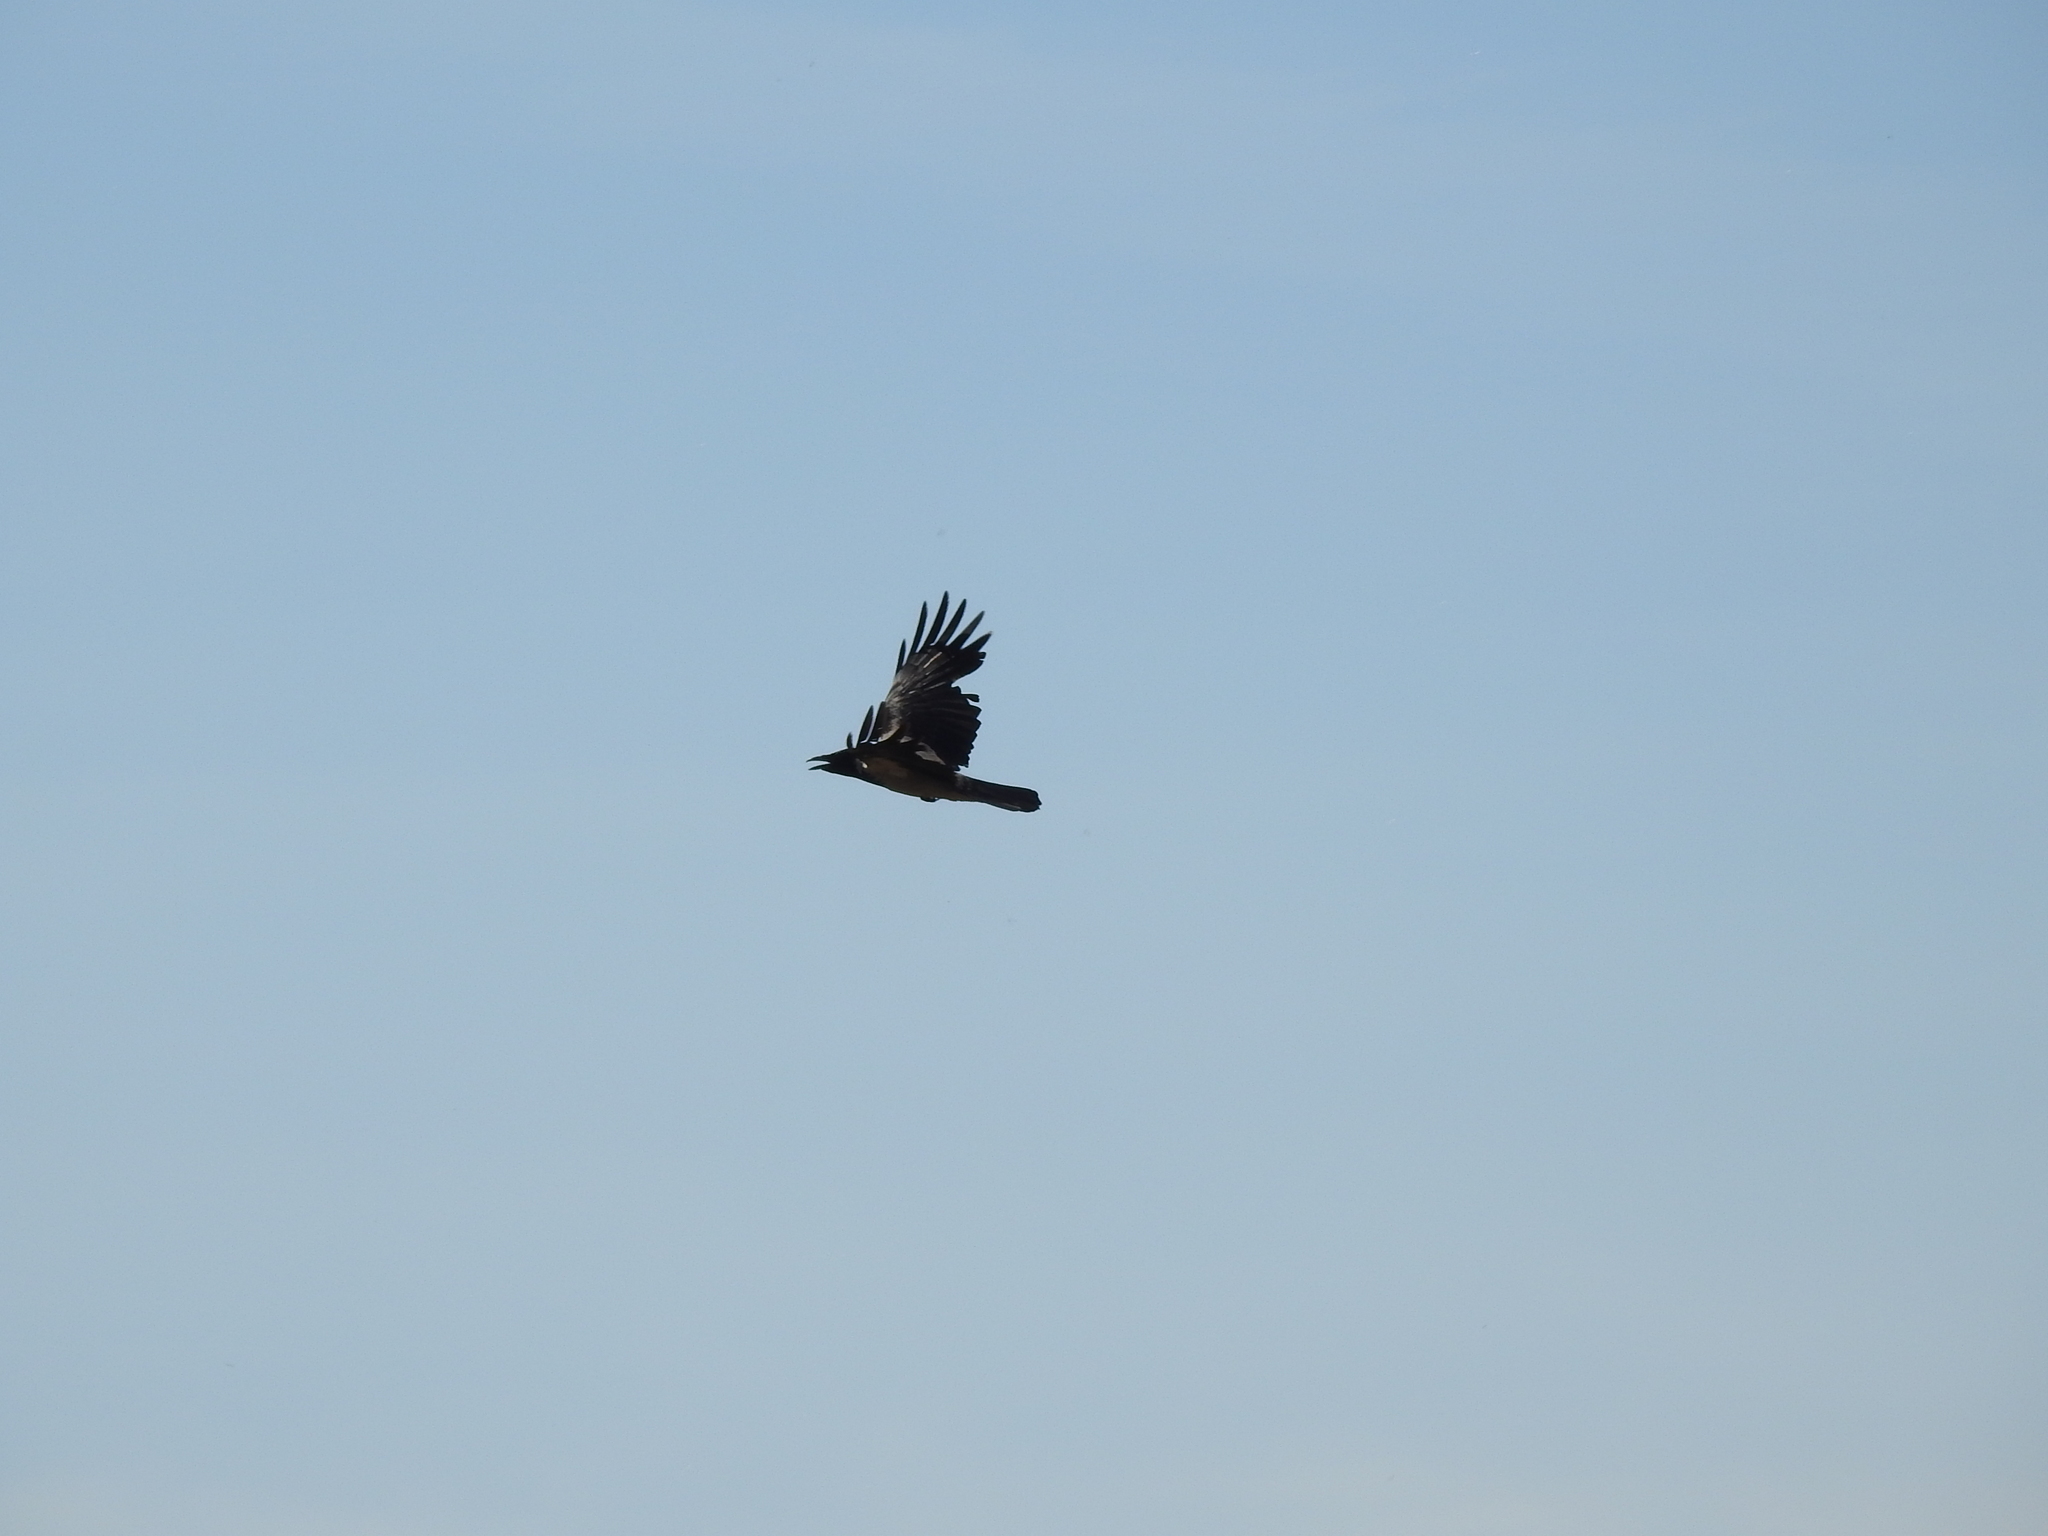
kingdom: Animalia
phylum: Chordata
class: Aves
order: Passeriformes
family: Corvidae
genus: Corvus
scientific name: Corvus corax
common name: Common raven
